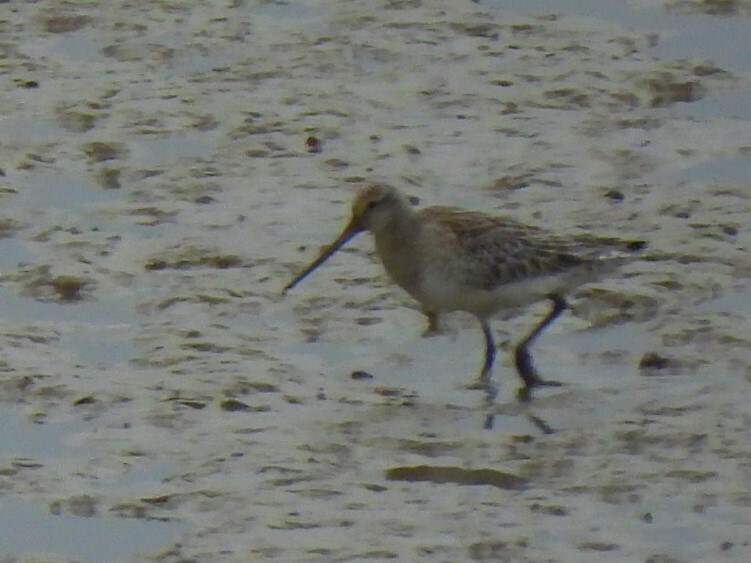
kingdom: Animalia
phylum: Chordata
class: Aves
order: Charadriiformes
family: Scolopacidae
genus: Limosa
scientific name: Limosa lapponica
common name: Bar-tailed godwit
